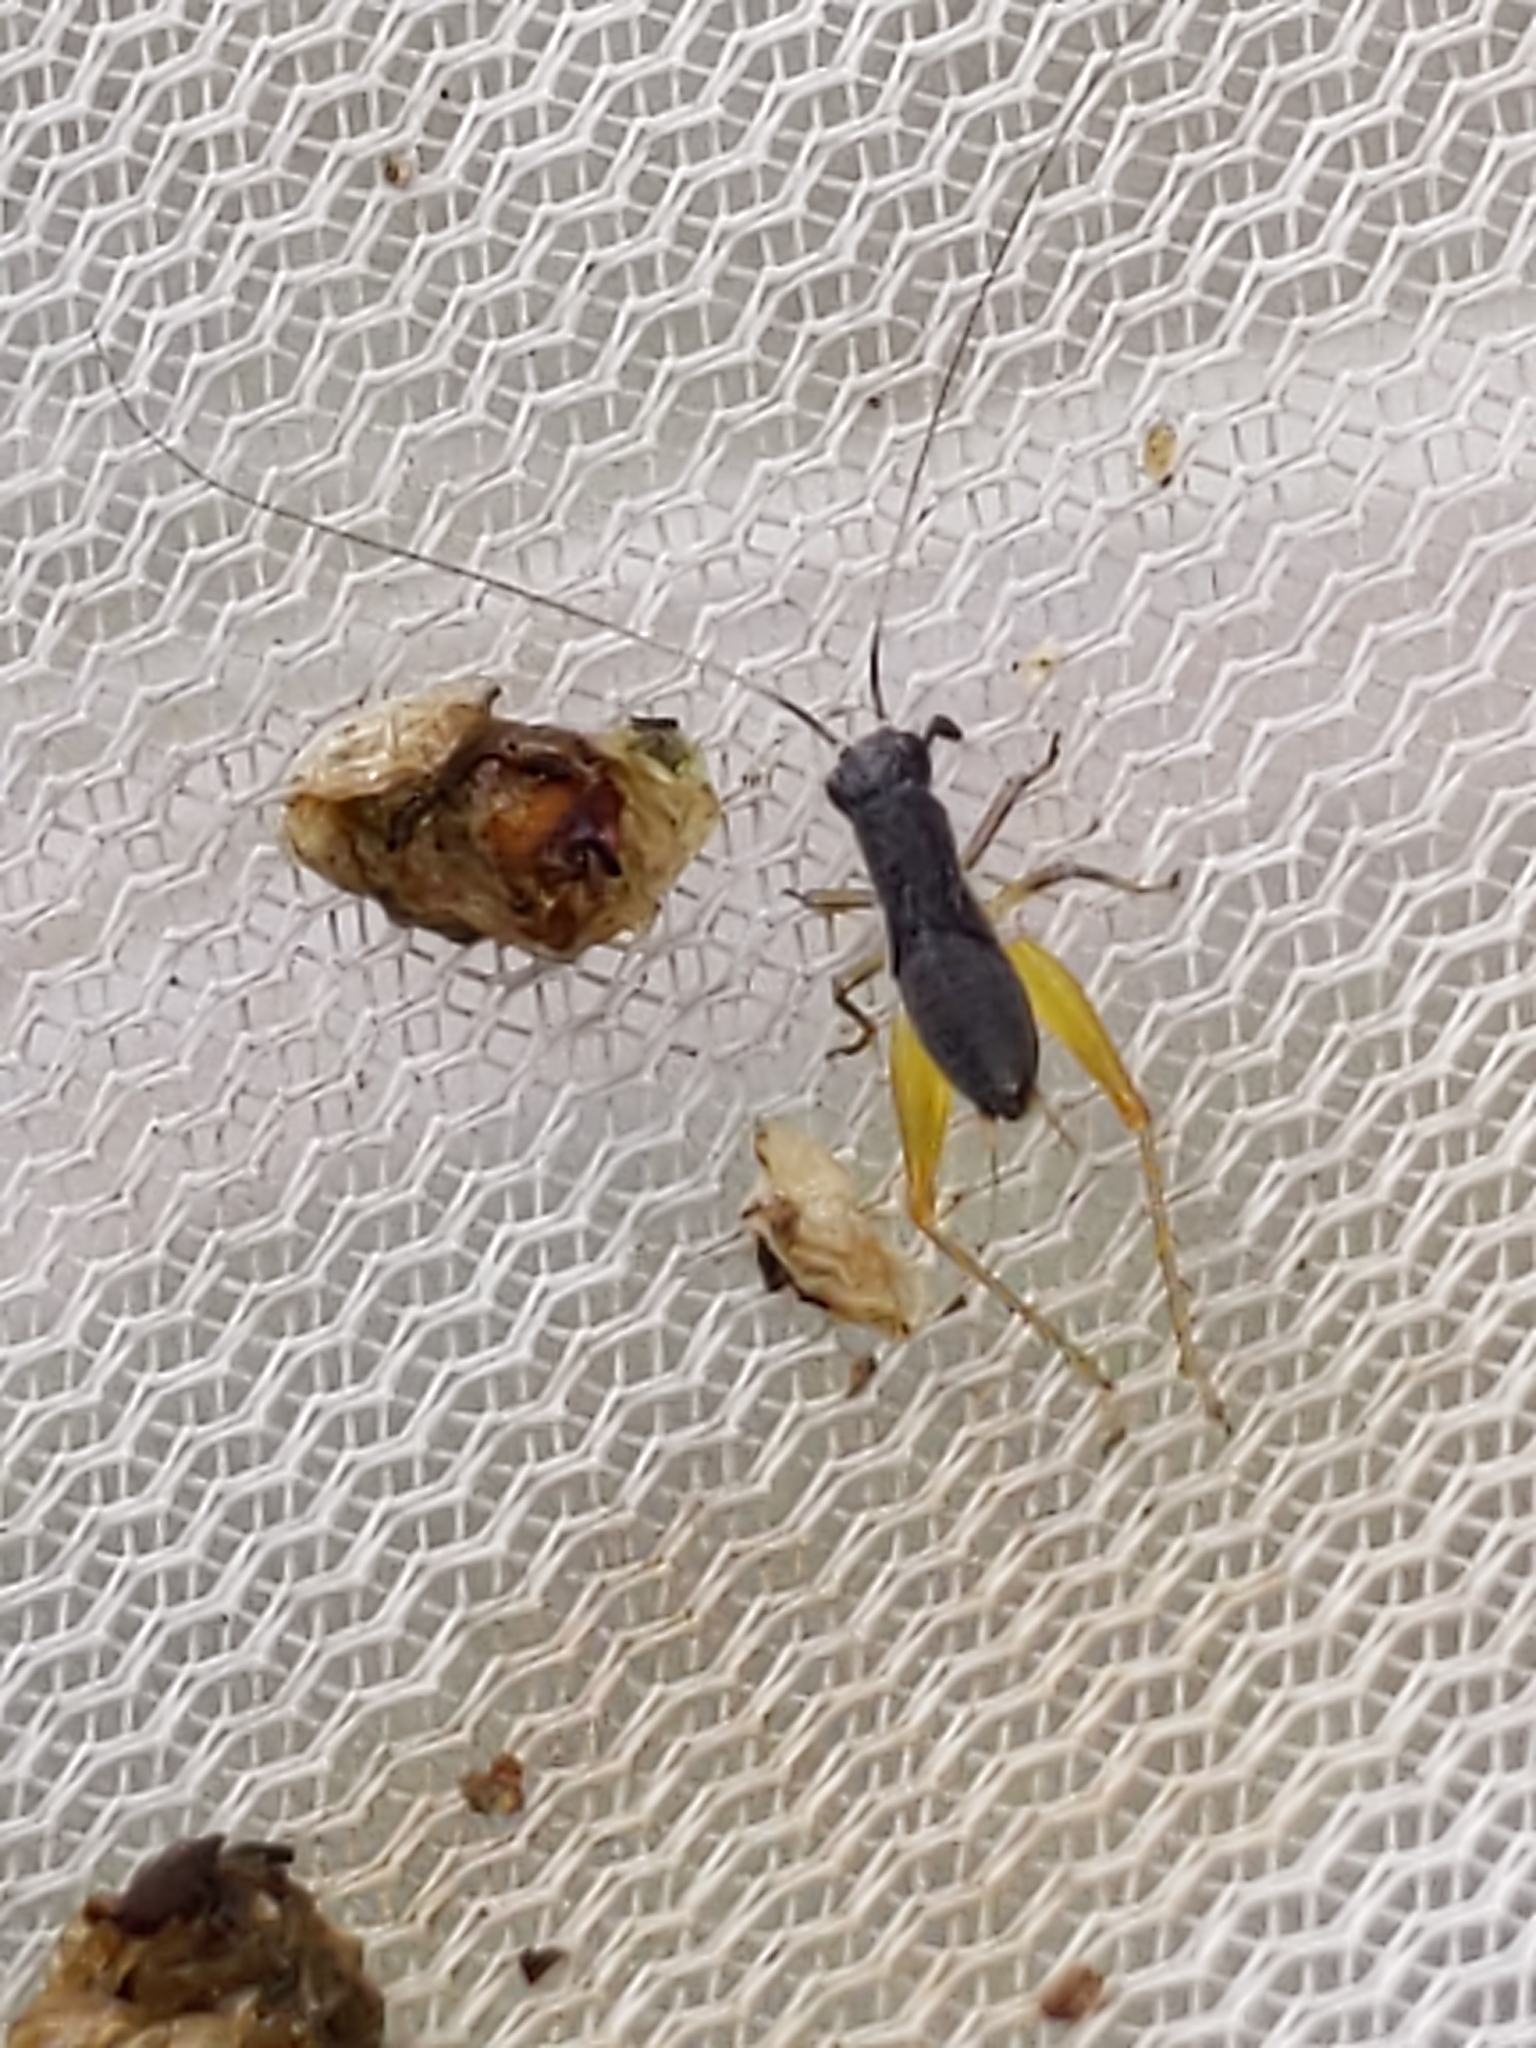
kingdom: Animalia
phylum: Arthropoda
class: Insecta
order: Orthoptera
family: Trigonidiidae
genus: Phyllopalpus
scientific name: Phyllopalpus pulchellus
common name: Handsome trig
